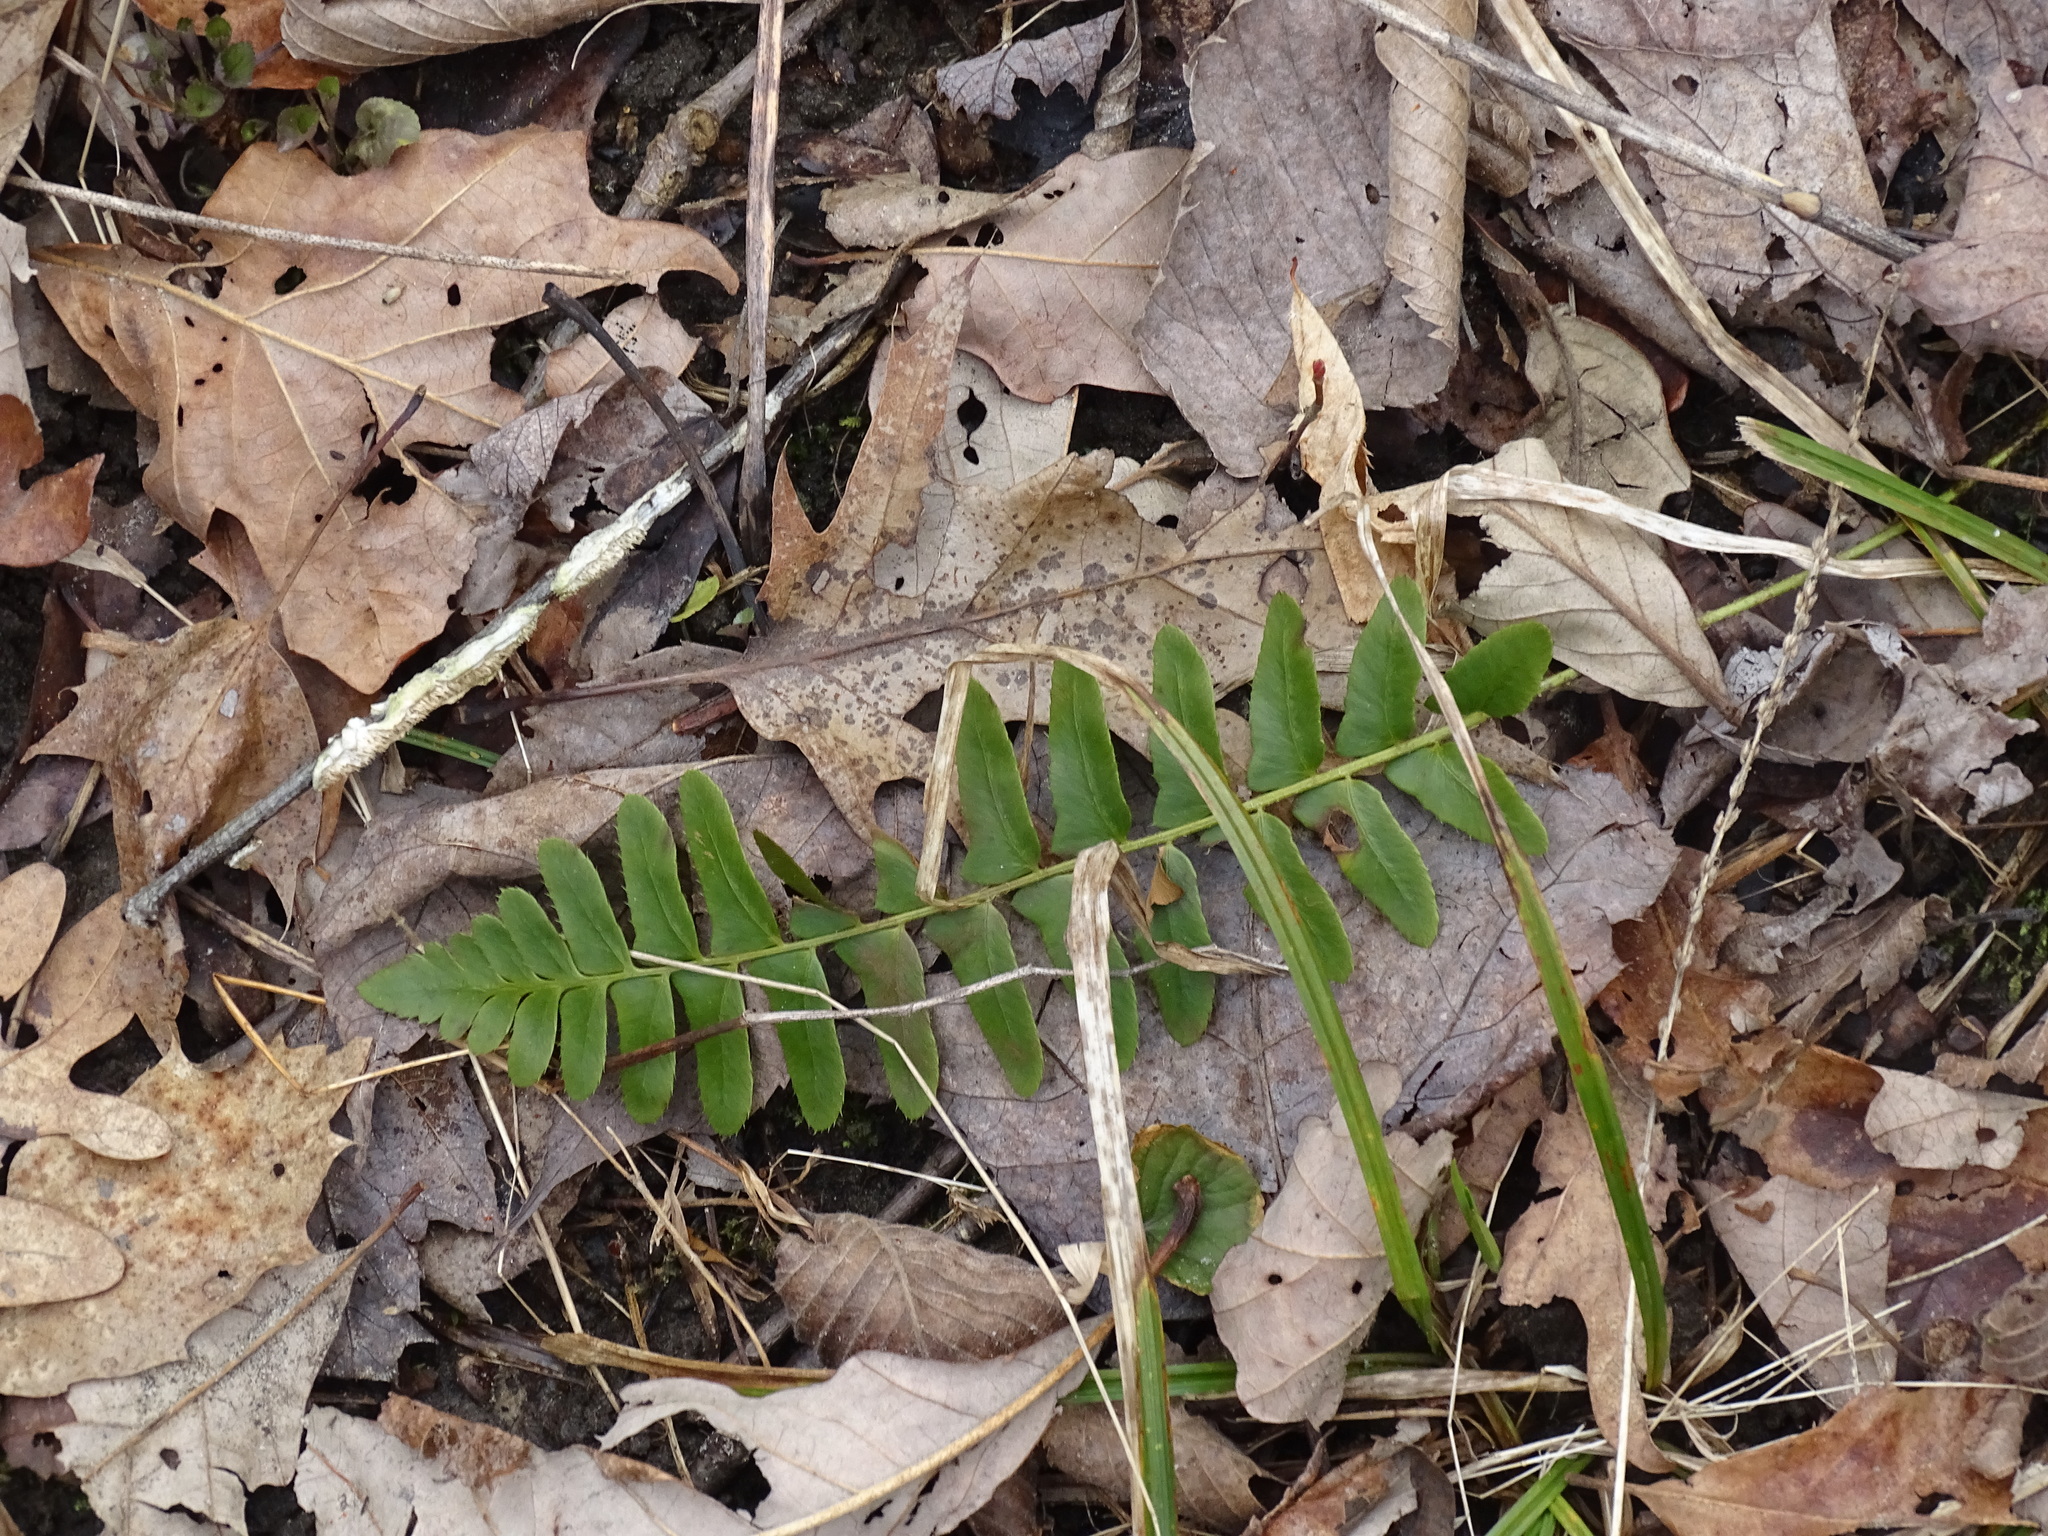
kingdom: Plantae
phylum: Tracheophyta
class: Polypodiopsida
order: Polypodiales
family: Dryopteridaceae
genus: Polystichum
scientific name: Polystichum acrostichoides
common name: Christmas fern
